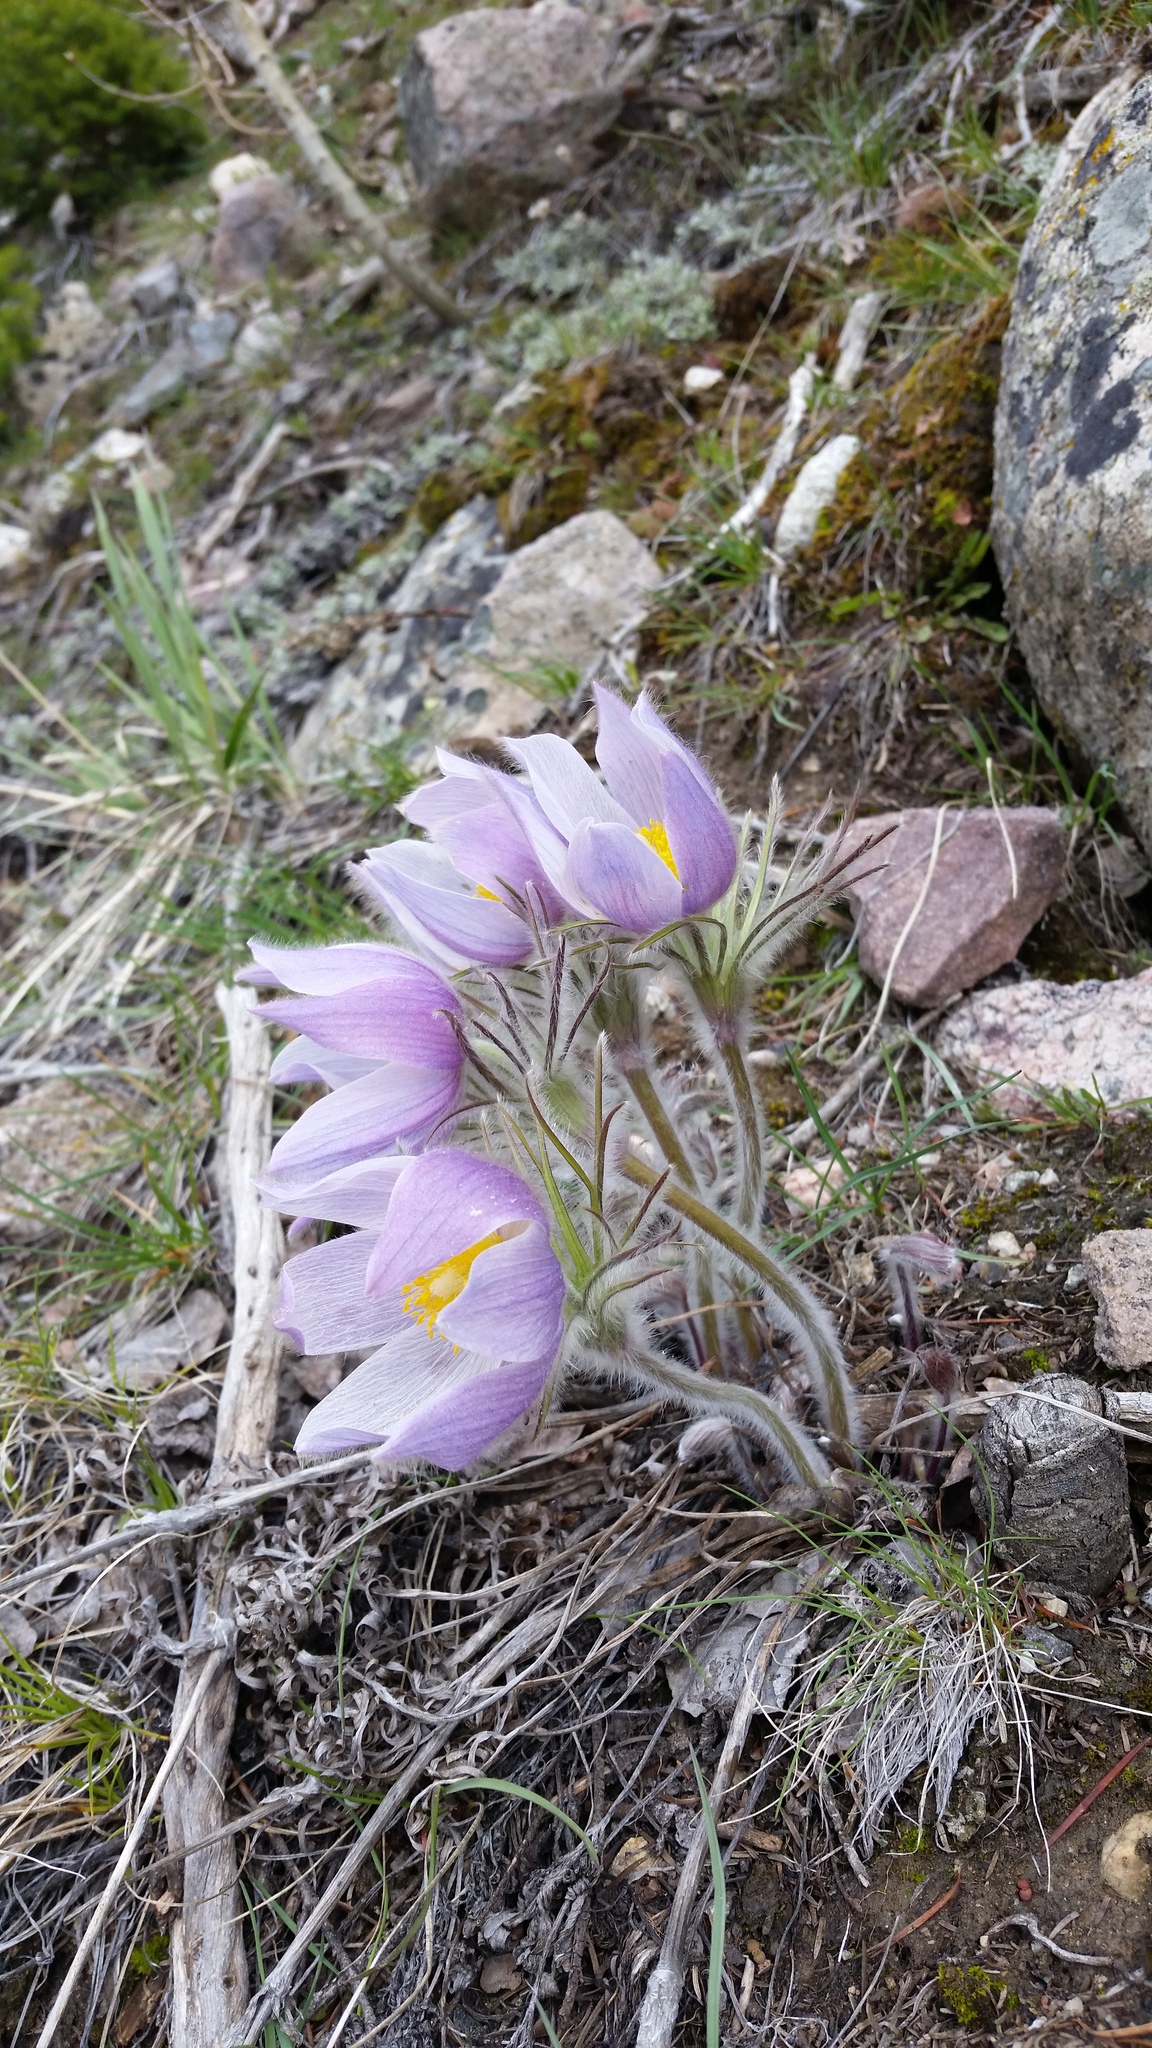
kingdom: Plantae
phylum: Tracheophyta
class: Magnoliopsida
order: Ranunculales
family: Ranunculaceae
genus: Pulsatilla
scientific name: Pulsatilla nuttalliana
